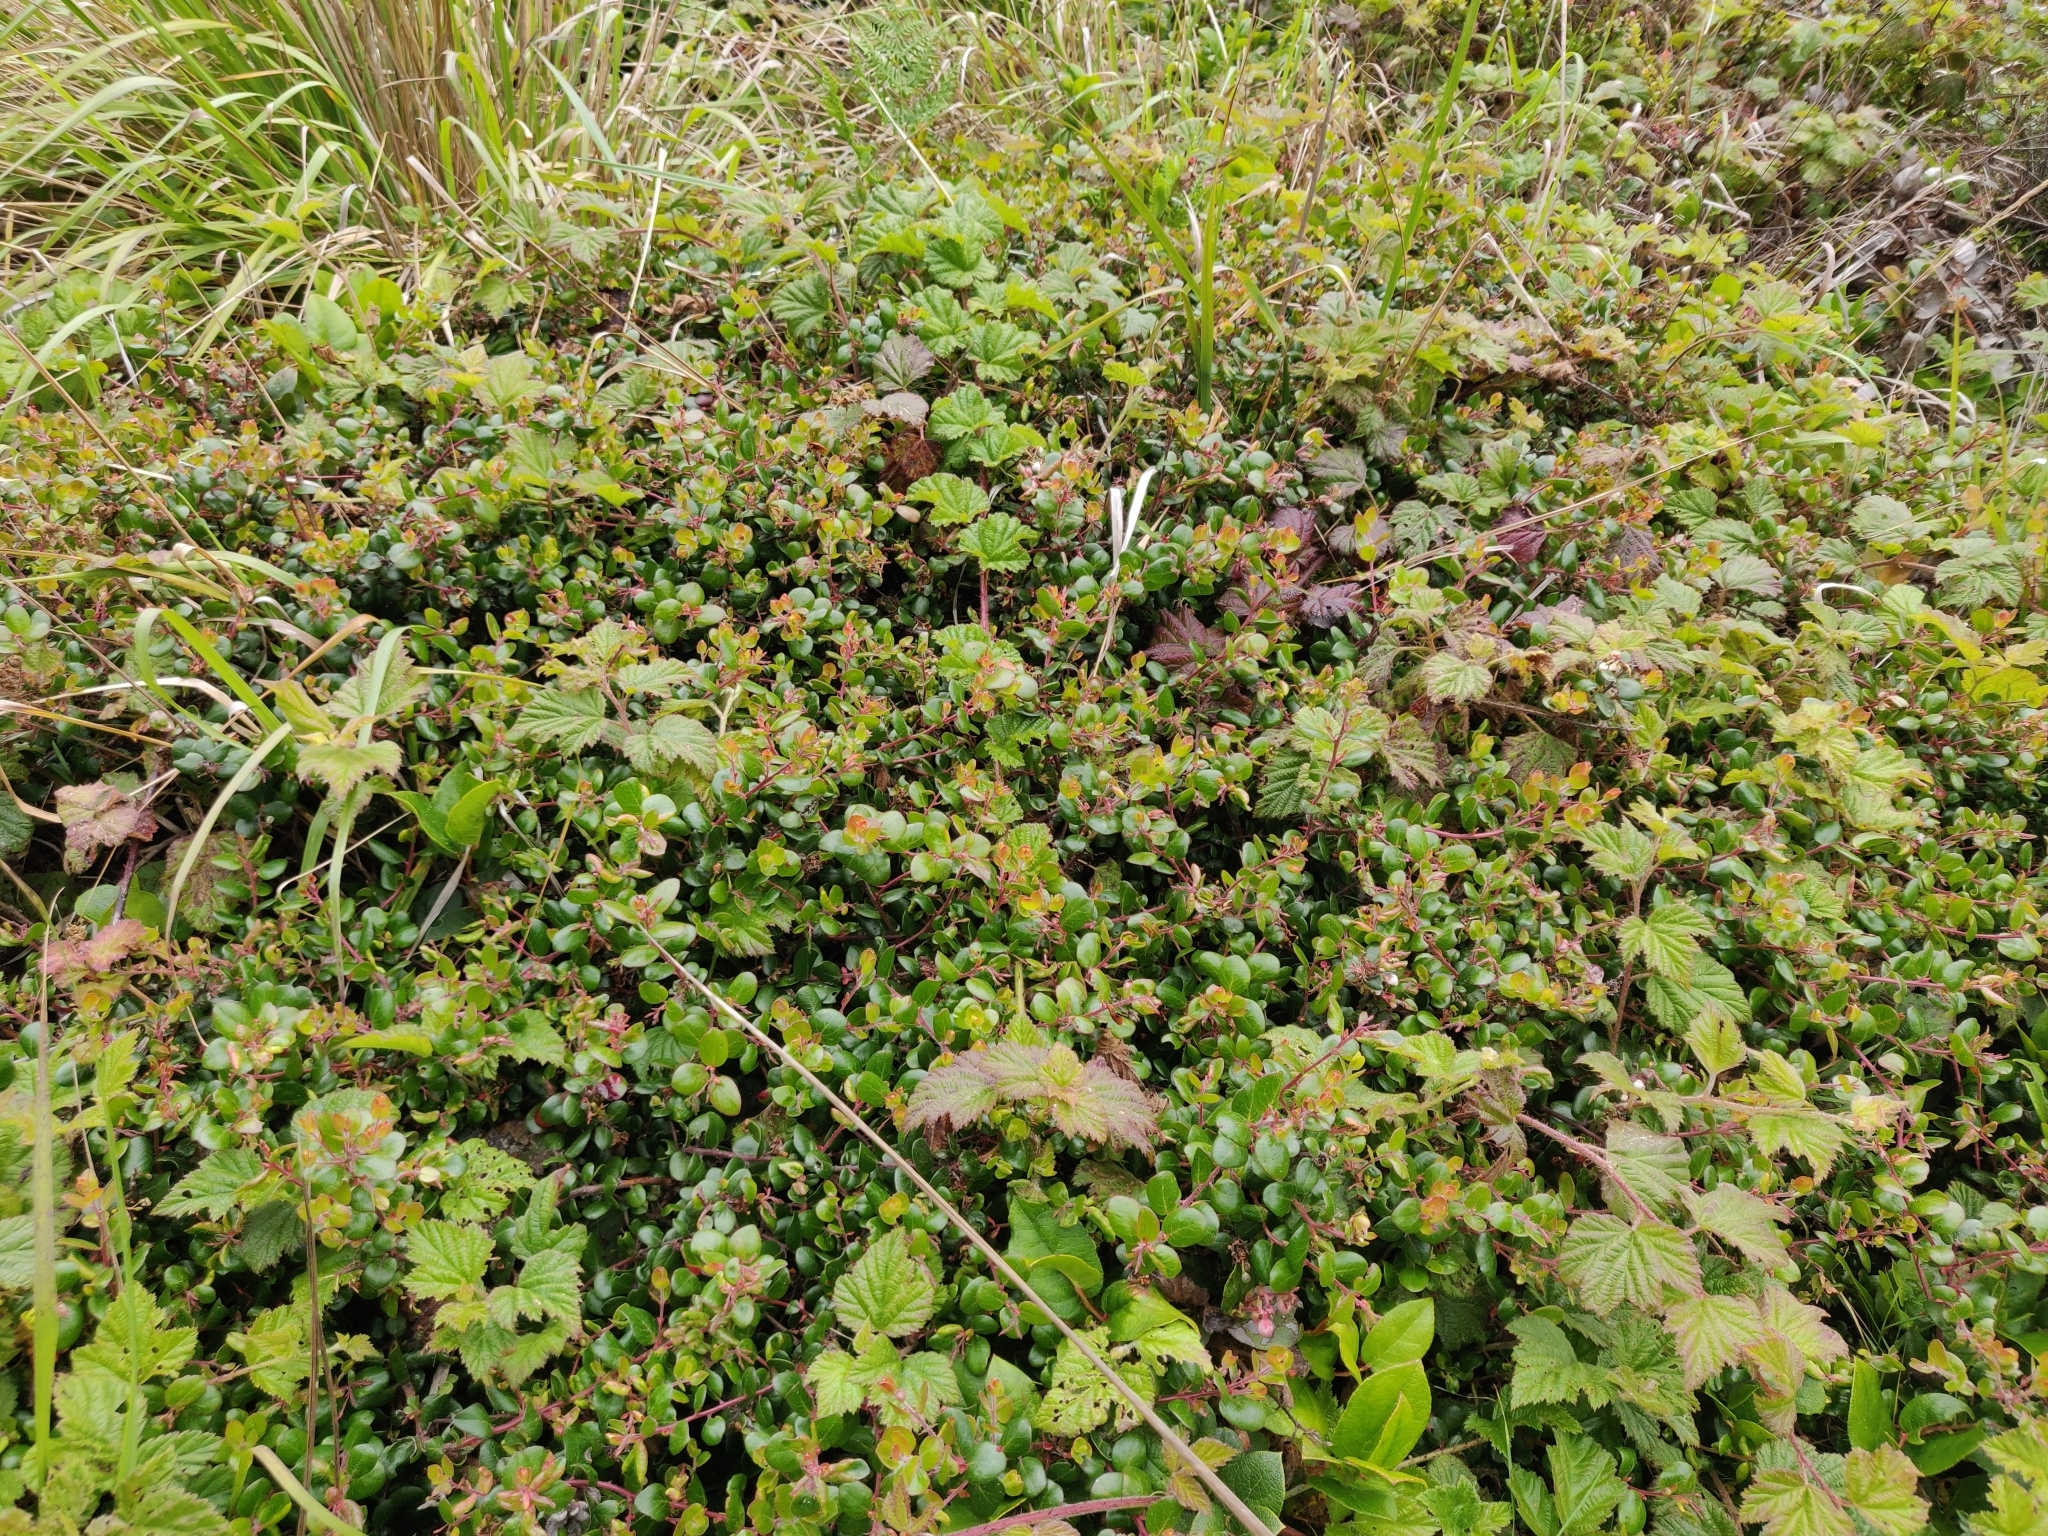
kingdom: Plantae
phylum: Tracheophyta
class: Magnoliopsida
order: Ericales
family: Ericaceae
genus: Arctostaphylos
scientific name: Arctostaphylos nummularia
